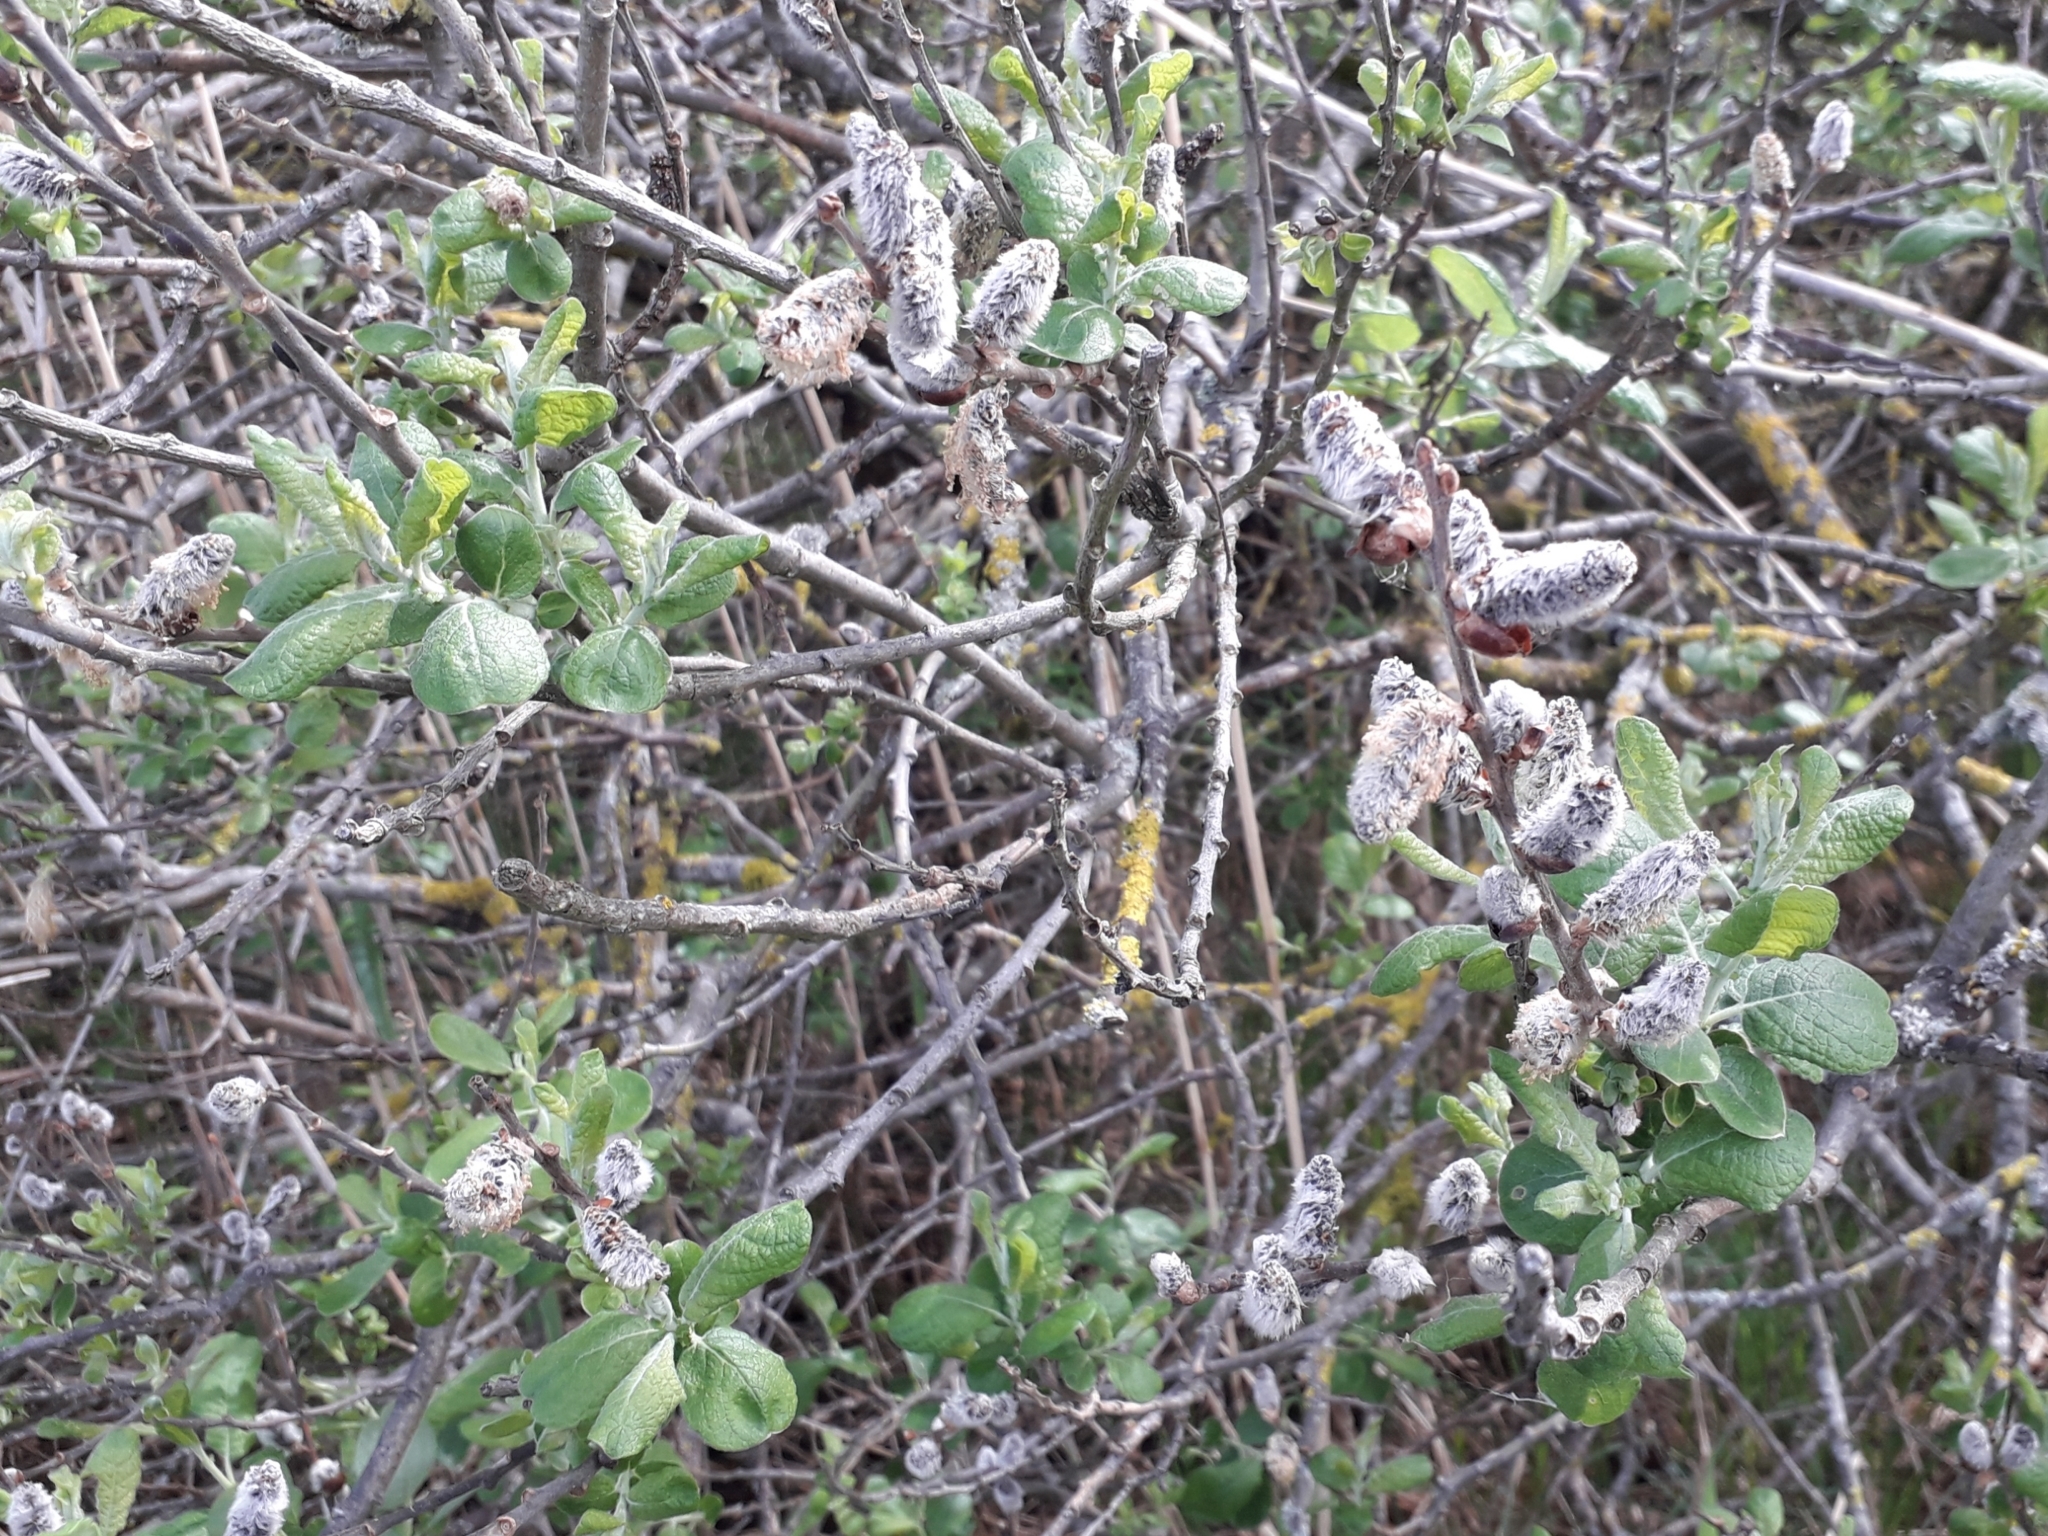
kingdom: Plantae
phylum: Tracheophyta
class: Magnoliopsida
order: Malpighiales
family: Salicaceae
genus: Salix
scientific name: Salix cinerea
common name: Common sallow
